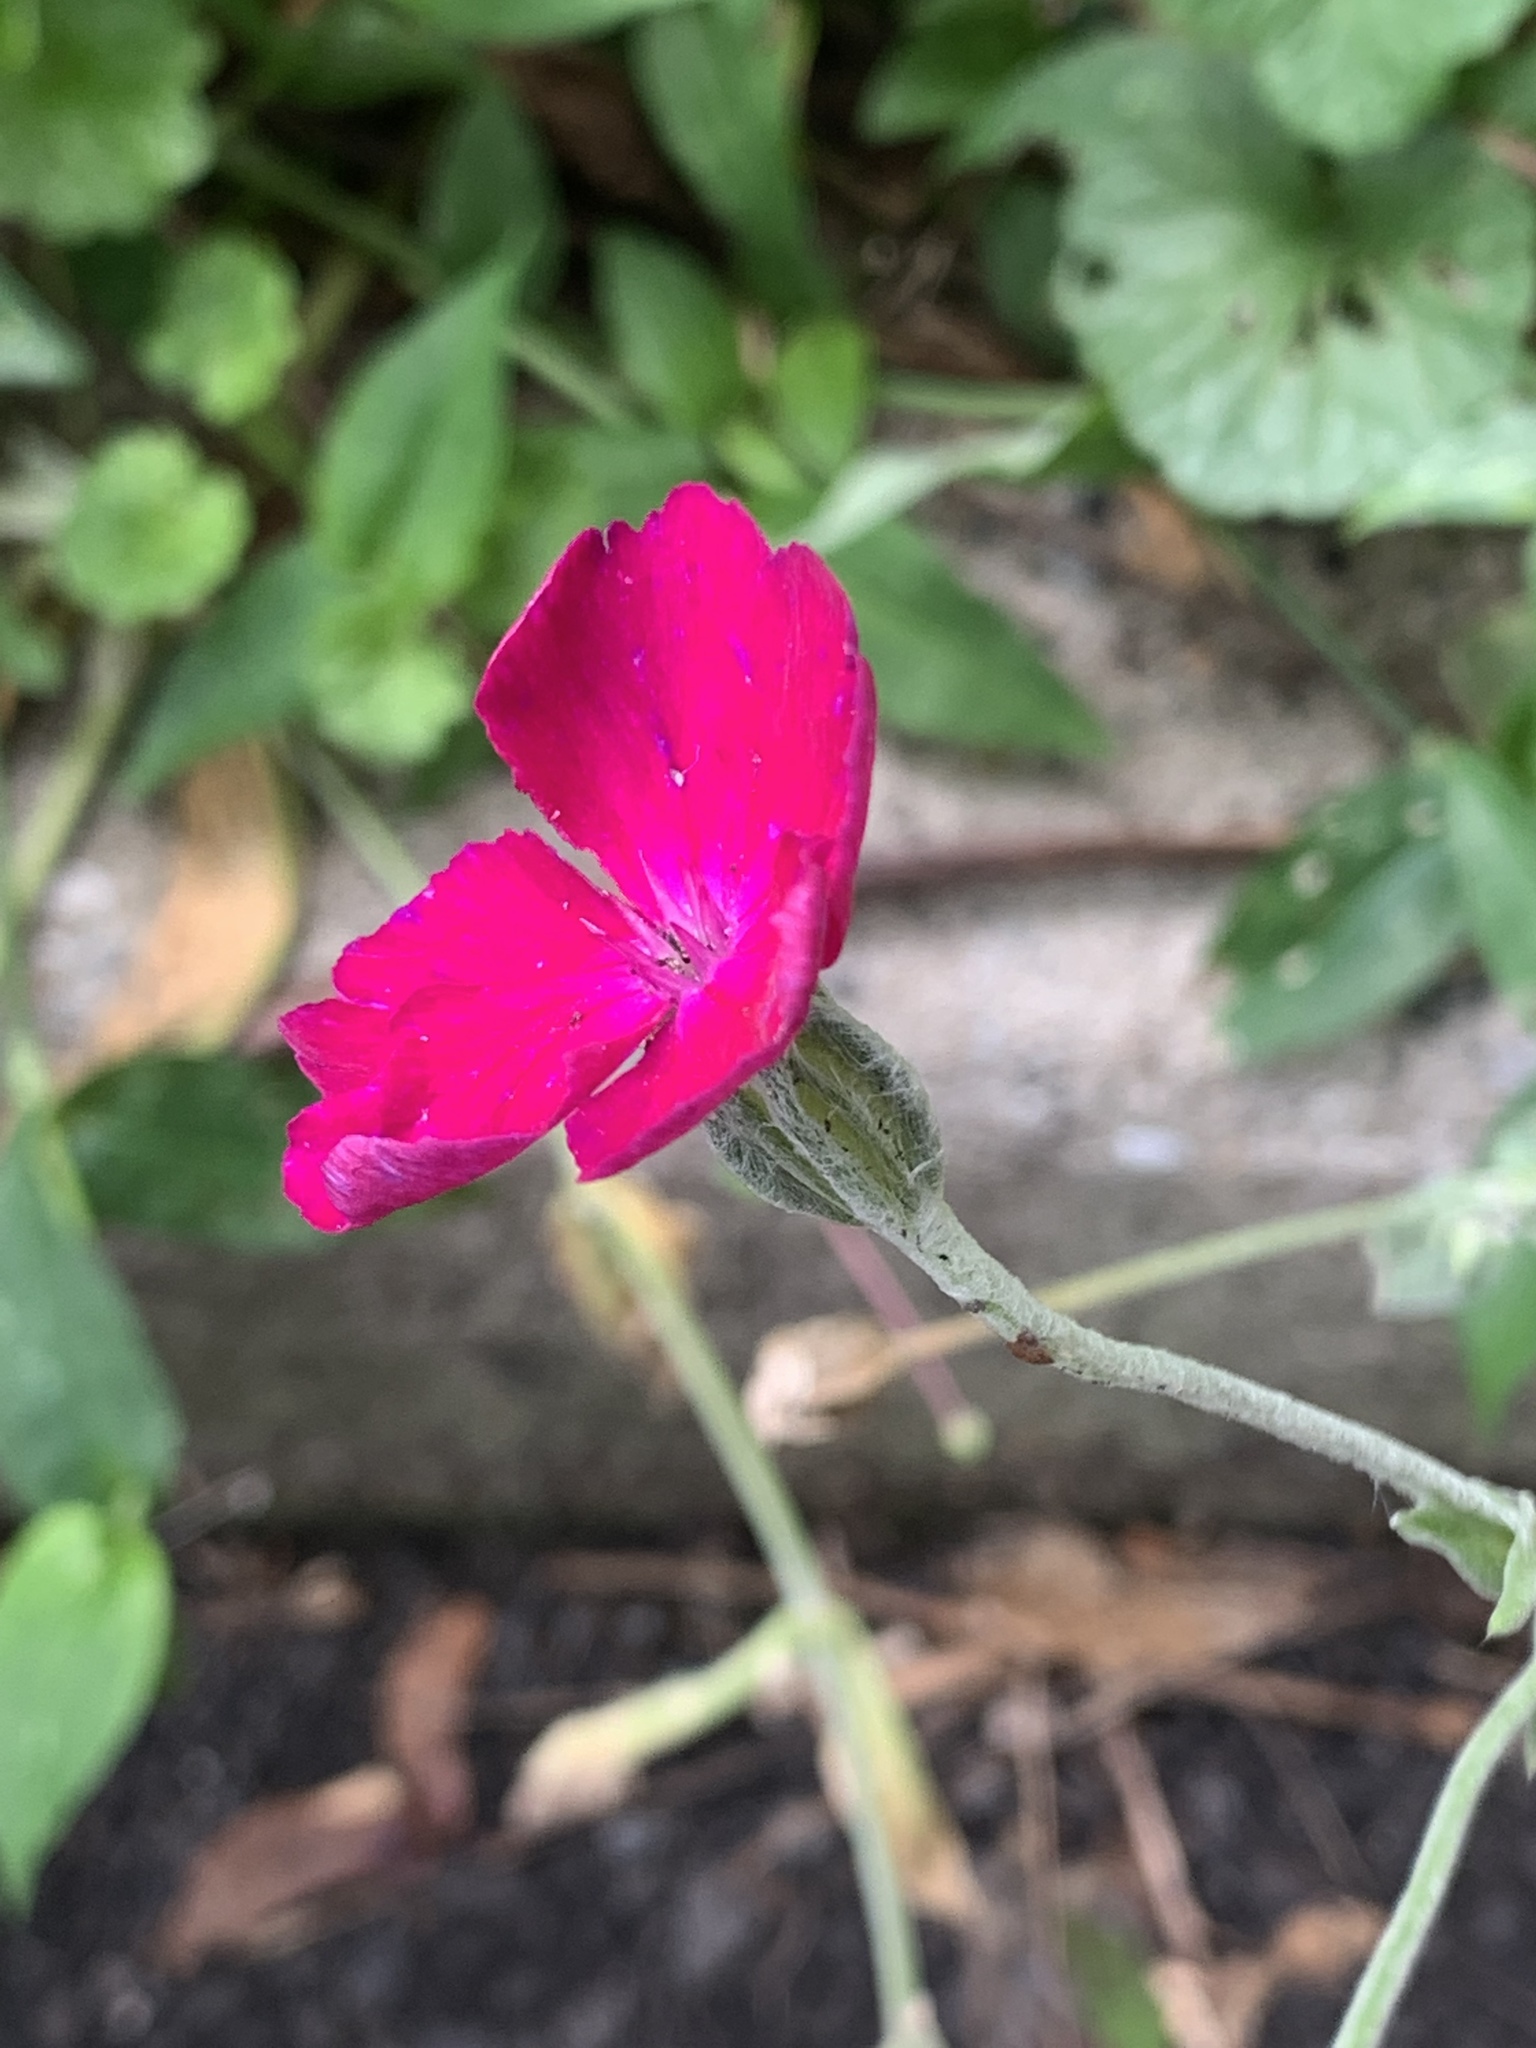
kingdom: Plantae
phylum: Tracheophyta
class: Magnoliopsida
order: Caryophyllales
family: Caryophyllaceae
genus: Silene
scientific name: Silene coronaria
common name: Rose campion
